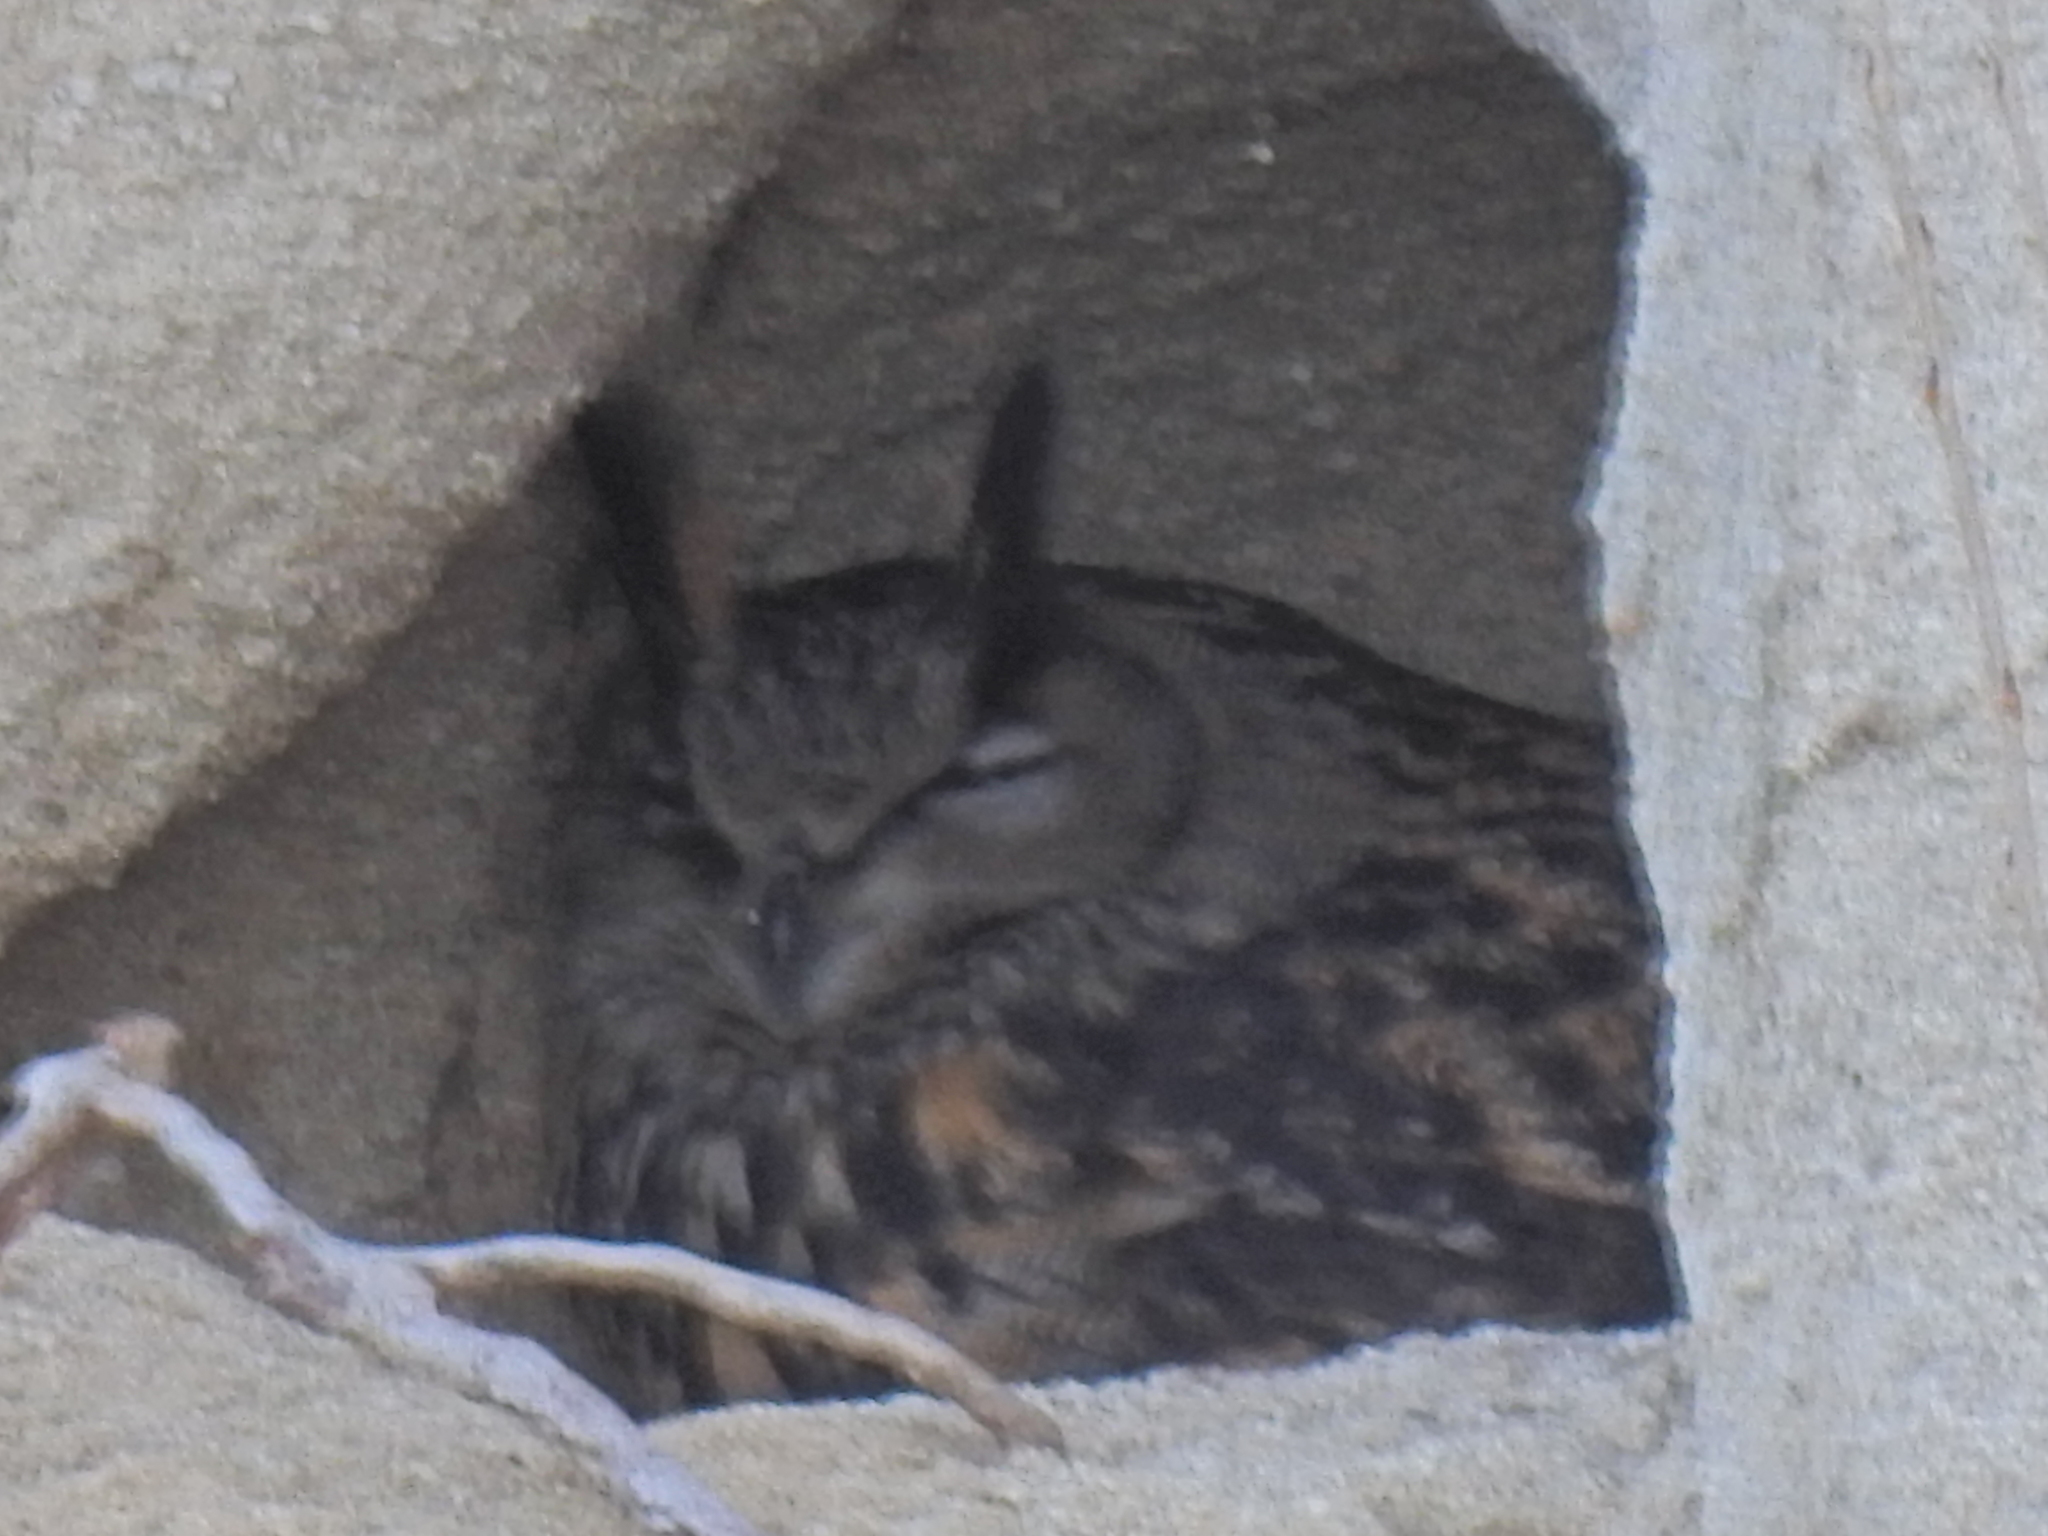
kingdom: Animalia
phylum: Chordata
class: Aves
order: Strigiformes
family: Strigidae
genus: Bubo
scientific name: Bubo bubo
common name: Eurasian eagle-owl
